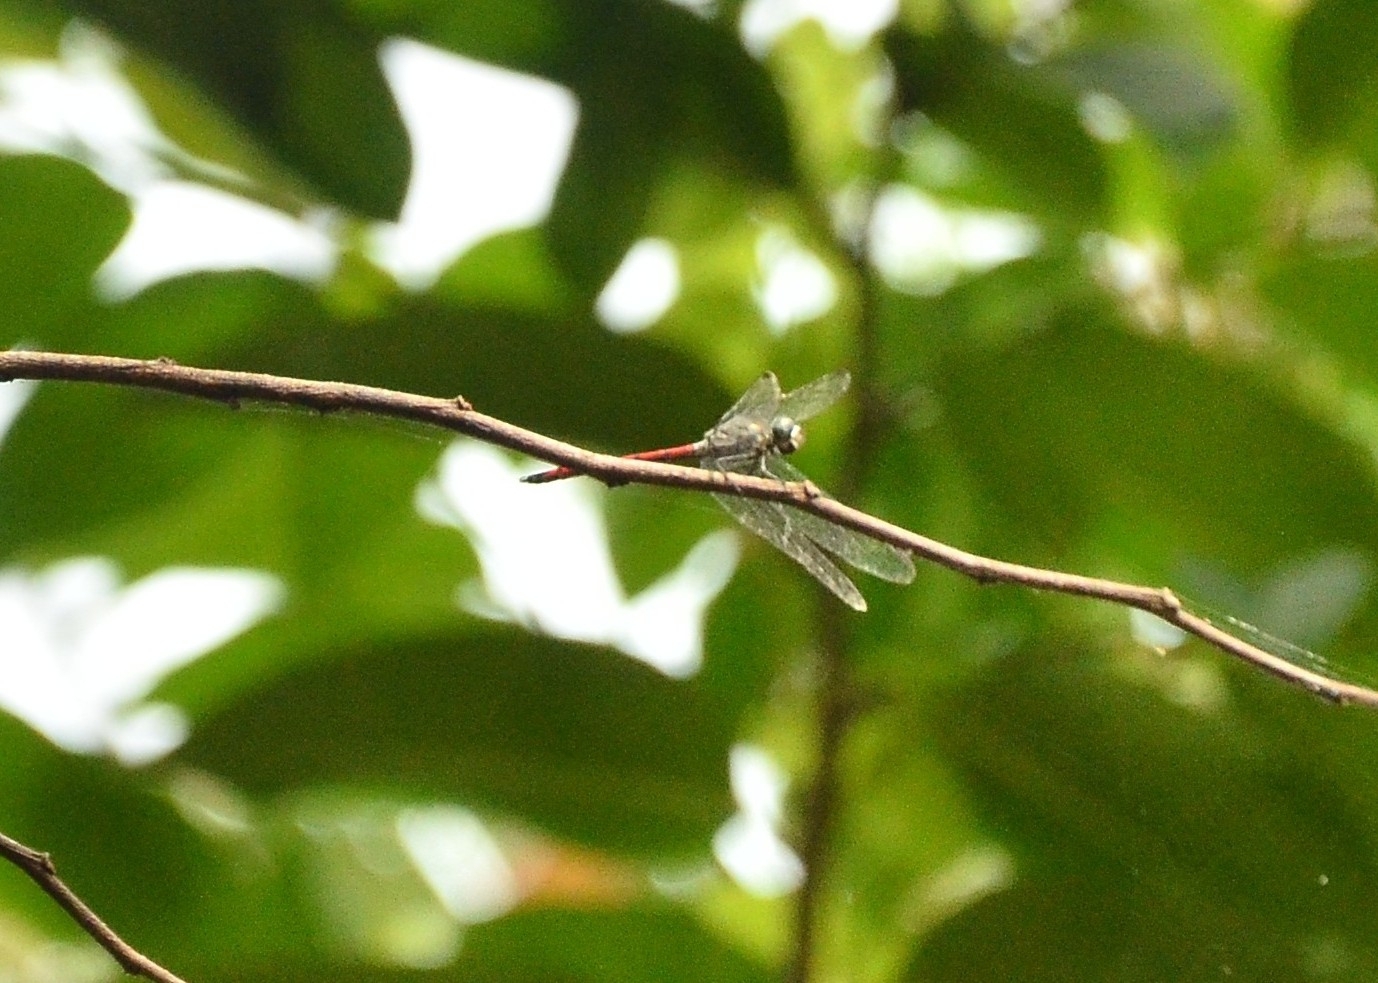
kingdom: Animalia
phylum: Arthropoda
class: Insecta
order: Odonata
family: Libellulidae
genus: Lathrecista
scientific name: Lathrecista asiatica
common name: Scarlet grenadier
